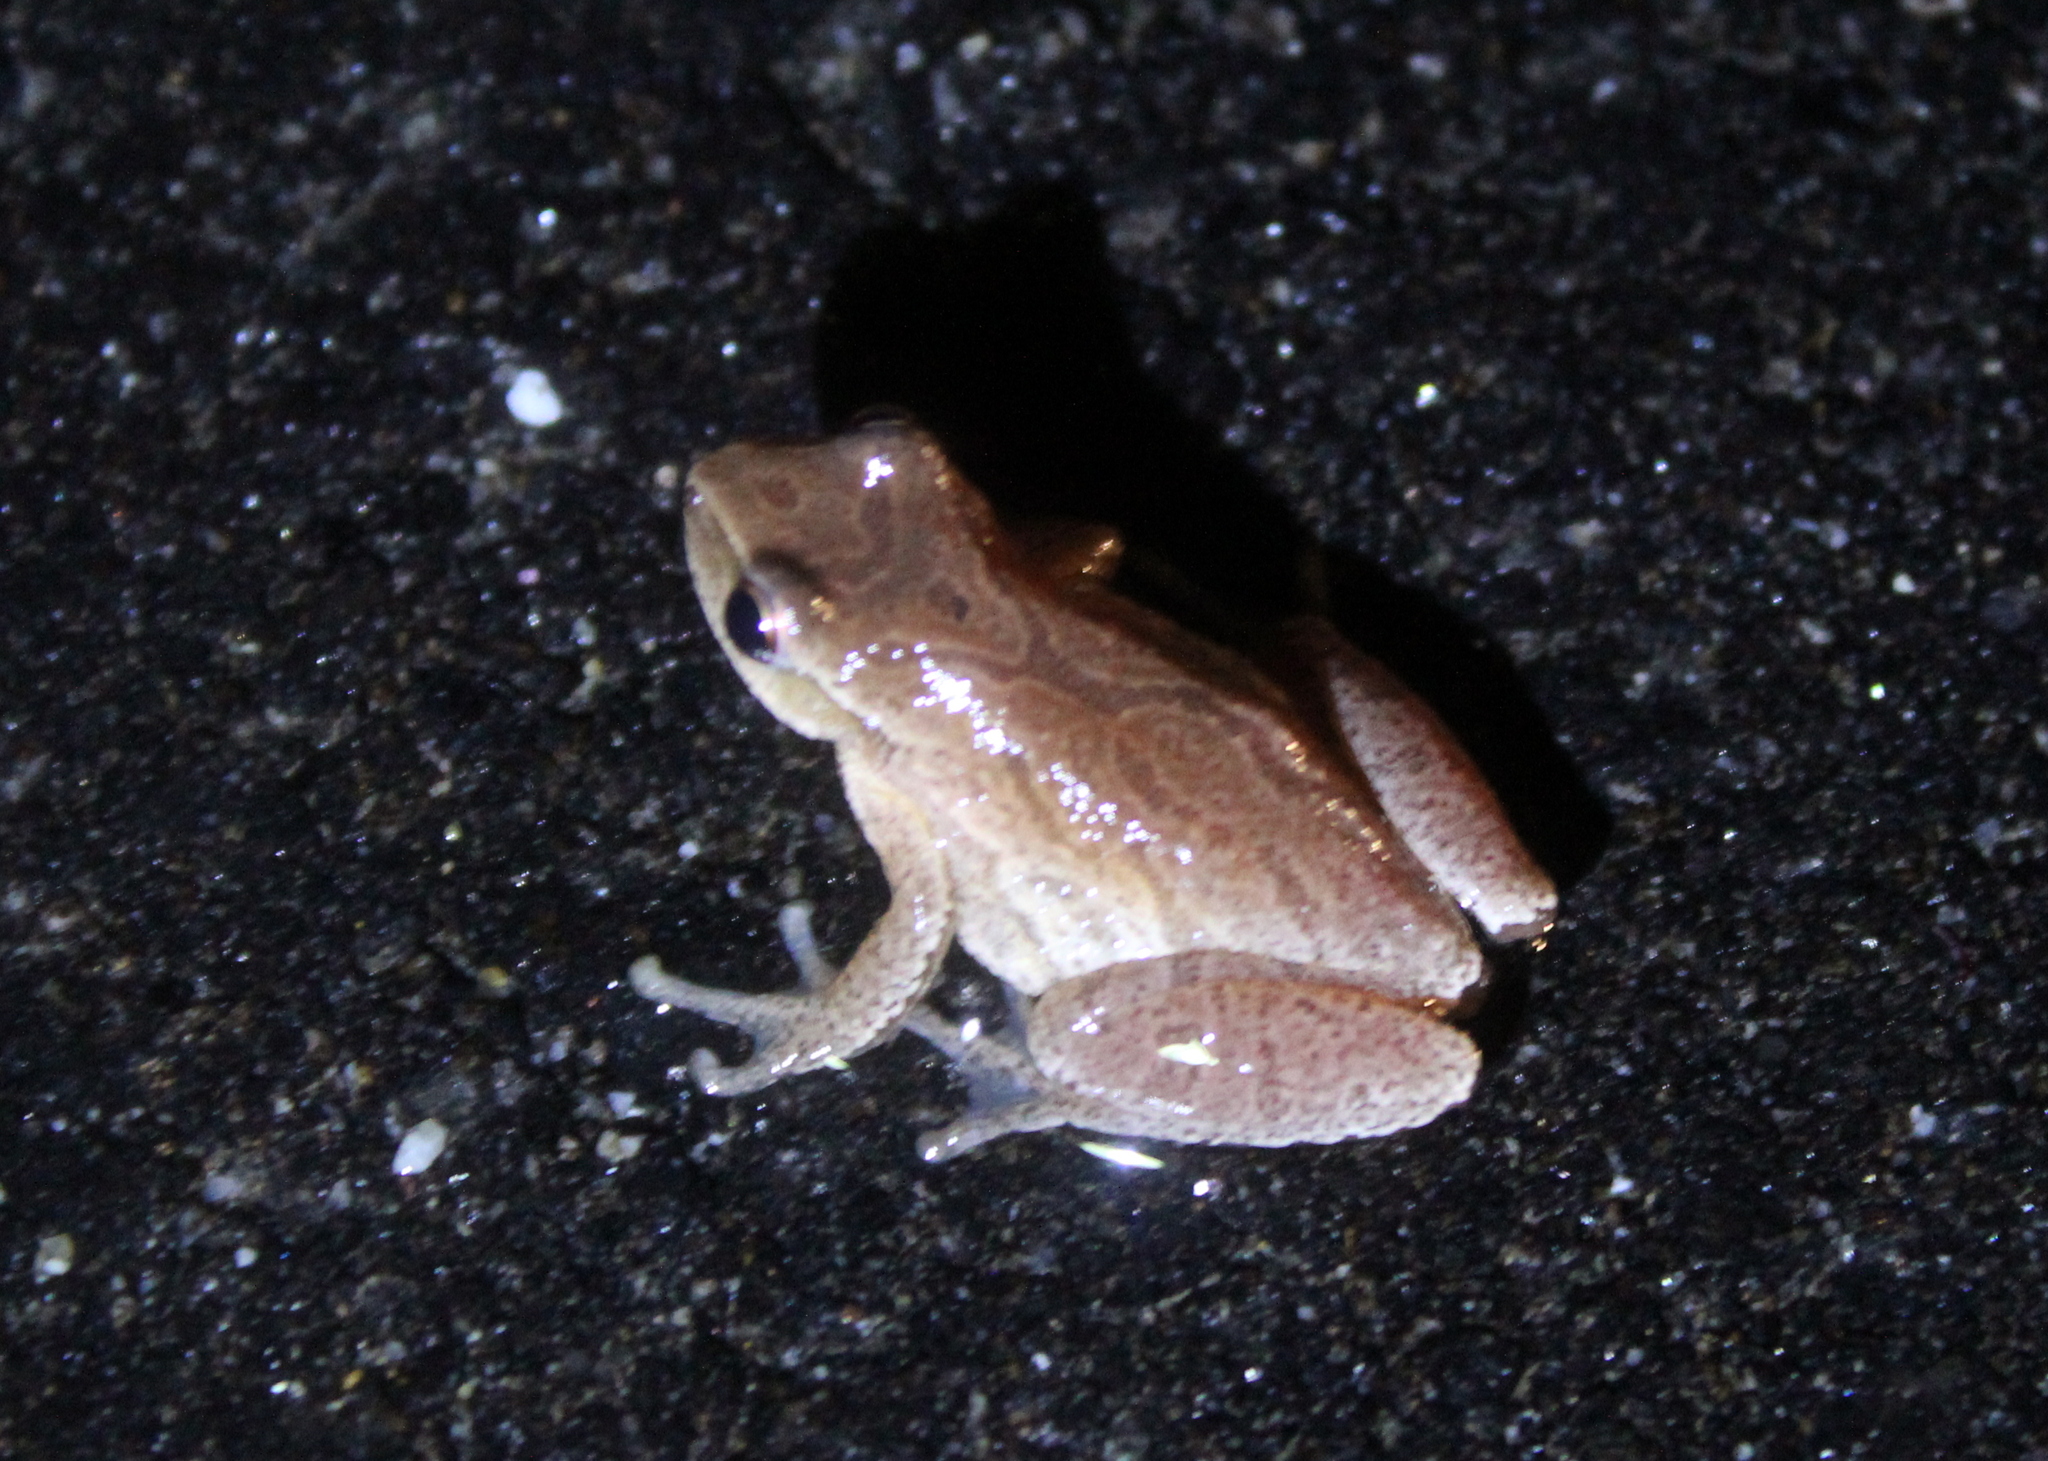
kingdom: Animalia
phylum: Chordata
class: Amphibia
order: Anura
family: Hylidae
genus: Pseudacris
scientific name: Pseudacris crucifer
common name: Spring peeper
